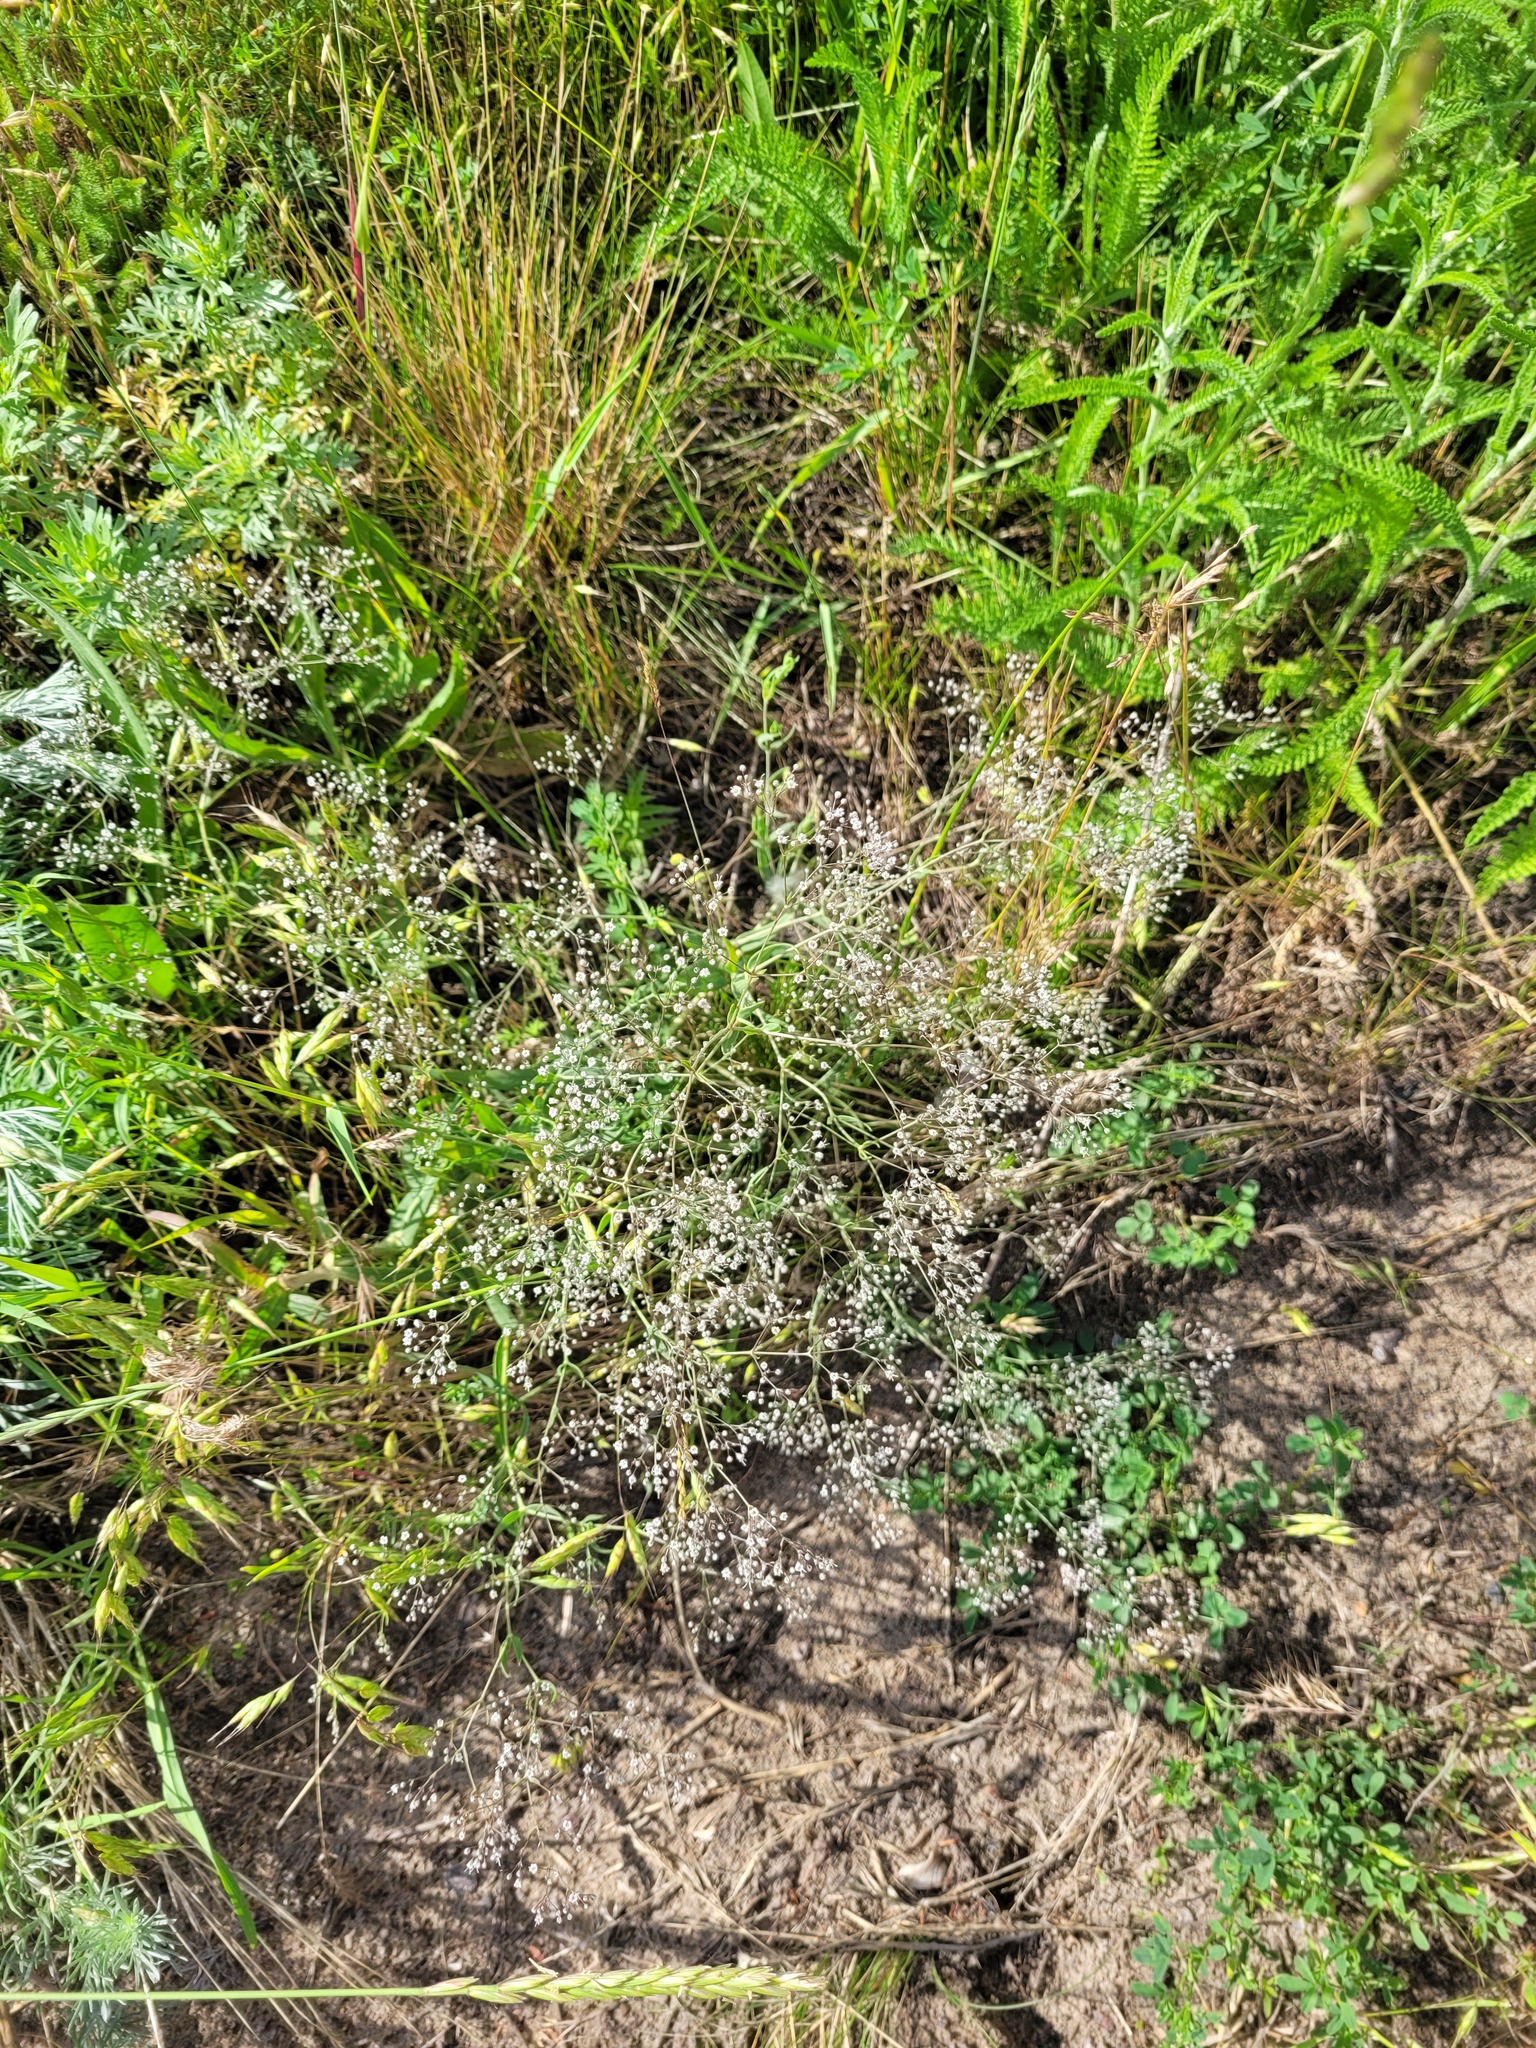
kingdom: Plantae
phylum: Tracheophyta
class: Magnoliopsida
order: Caryophyllales
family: Caryophyllaceae
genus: Gypsophila
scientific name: Gypsophila paniculata
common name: Baby's-breath
